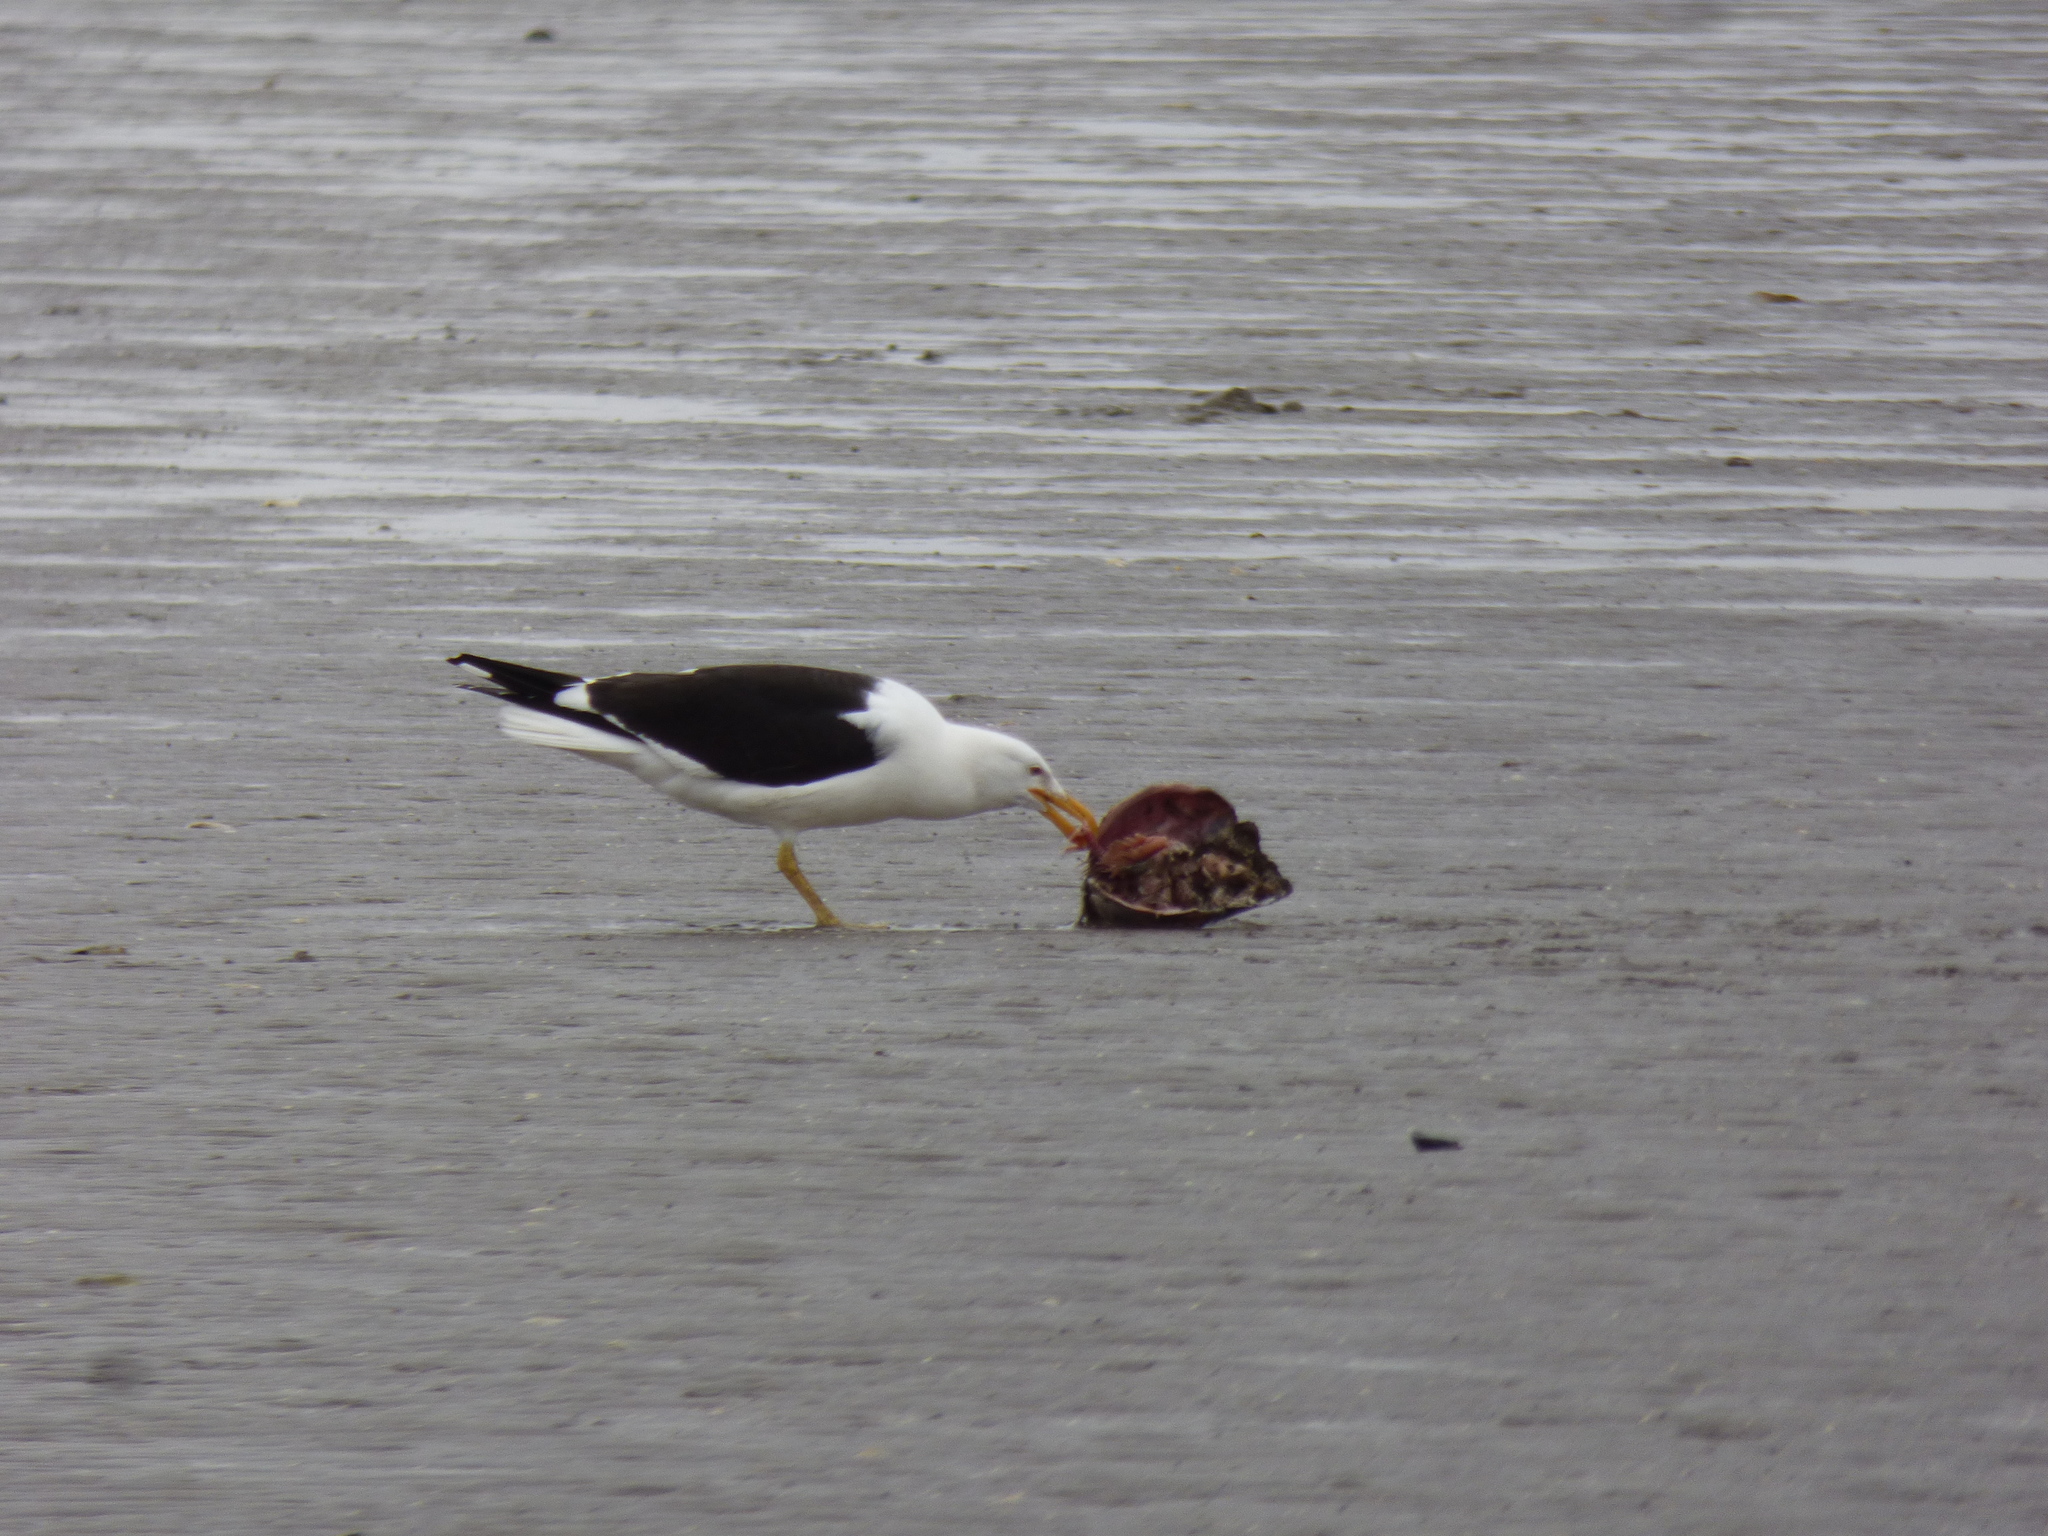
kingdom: Animalia
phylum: Chordata
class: Aves
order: Charadriiformes
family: Laridae
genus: Larus
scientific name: Larus dominicanus
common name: Kelp gull
